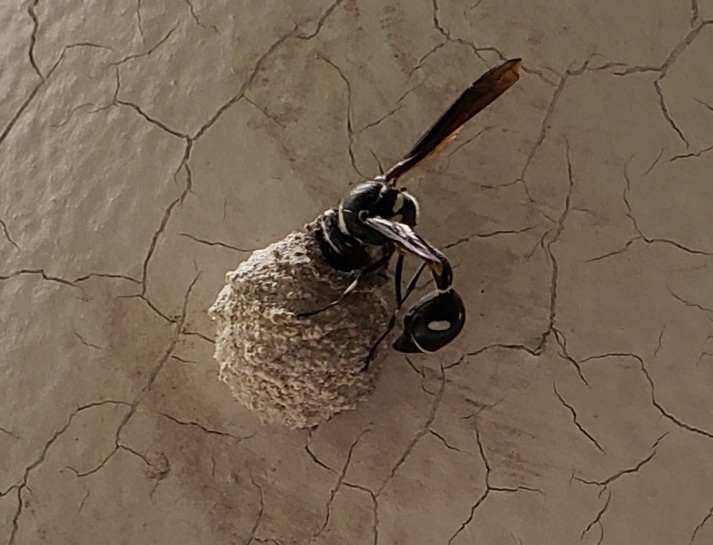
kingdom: Animalia
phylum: Arthropoda
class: Insecta
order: Hymenoptera
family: Vespidae
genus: Eumenes
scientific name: Eumenes fraternus
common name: Fraternal potter wasp
